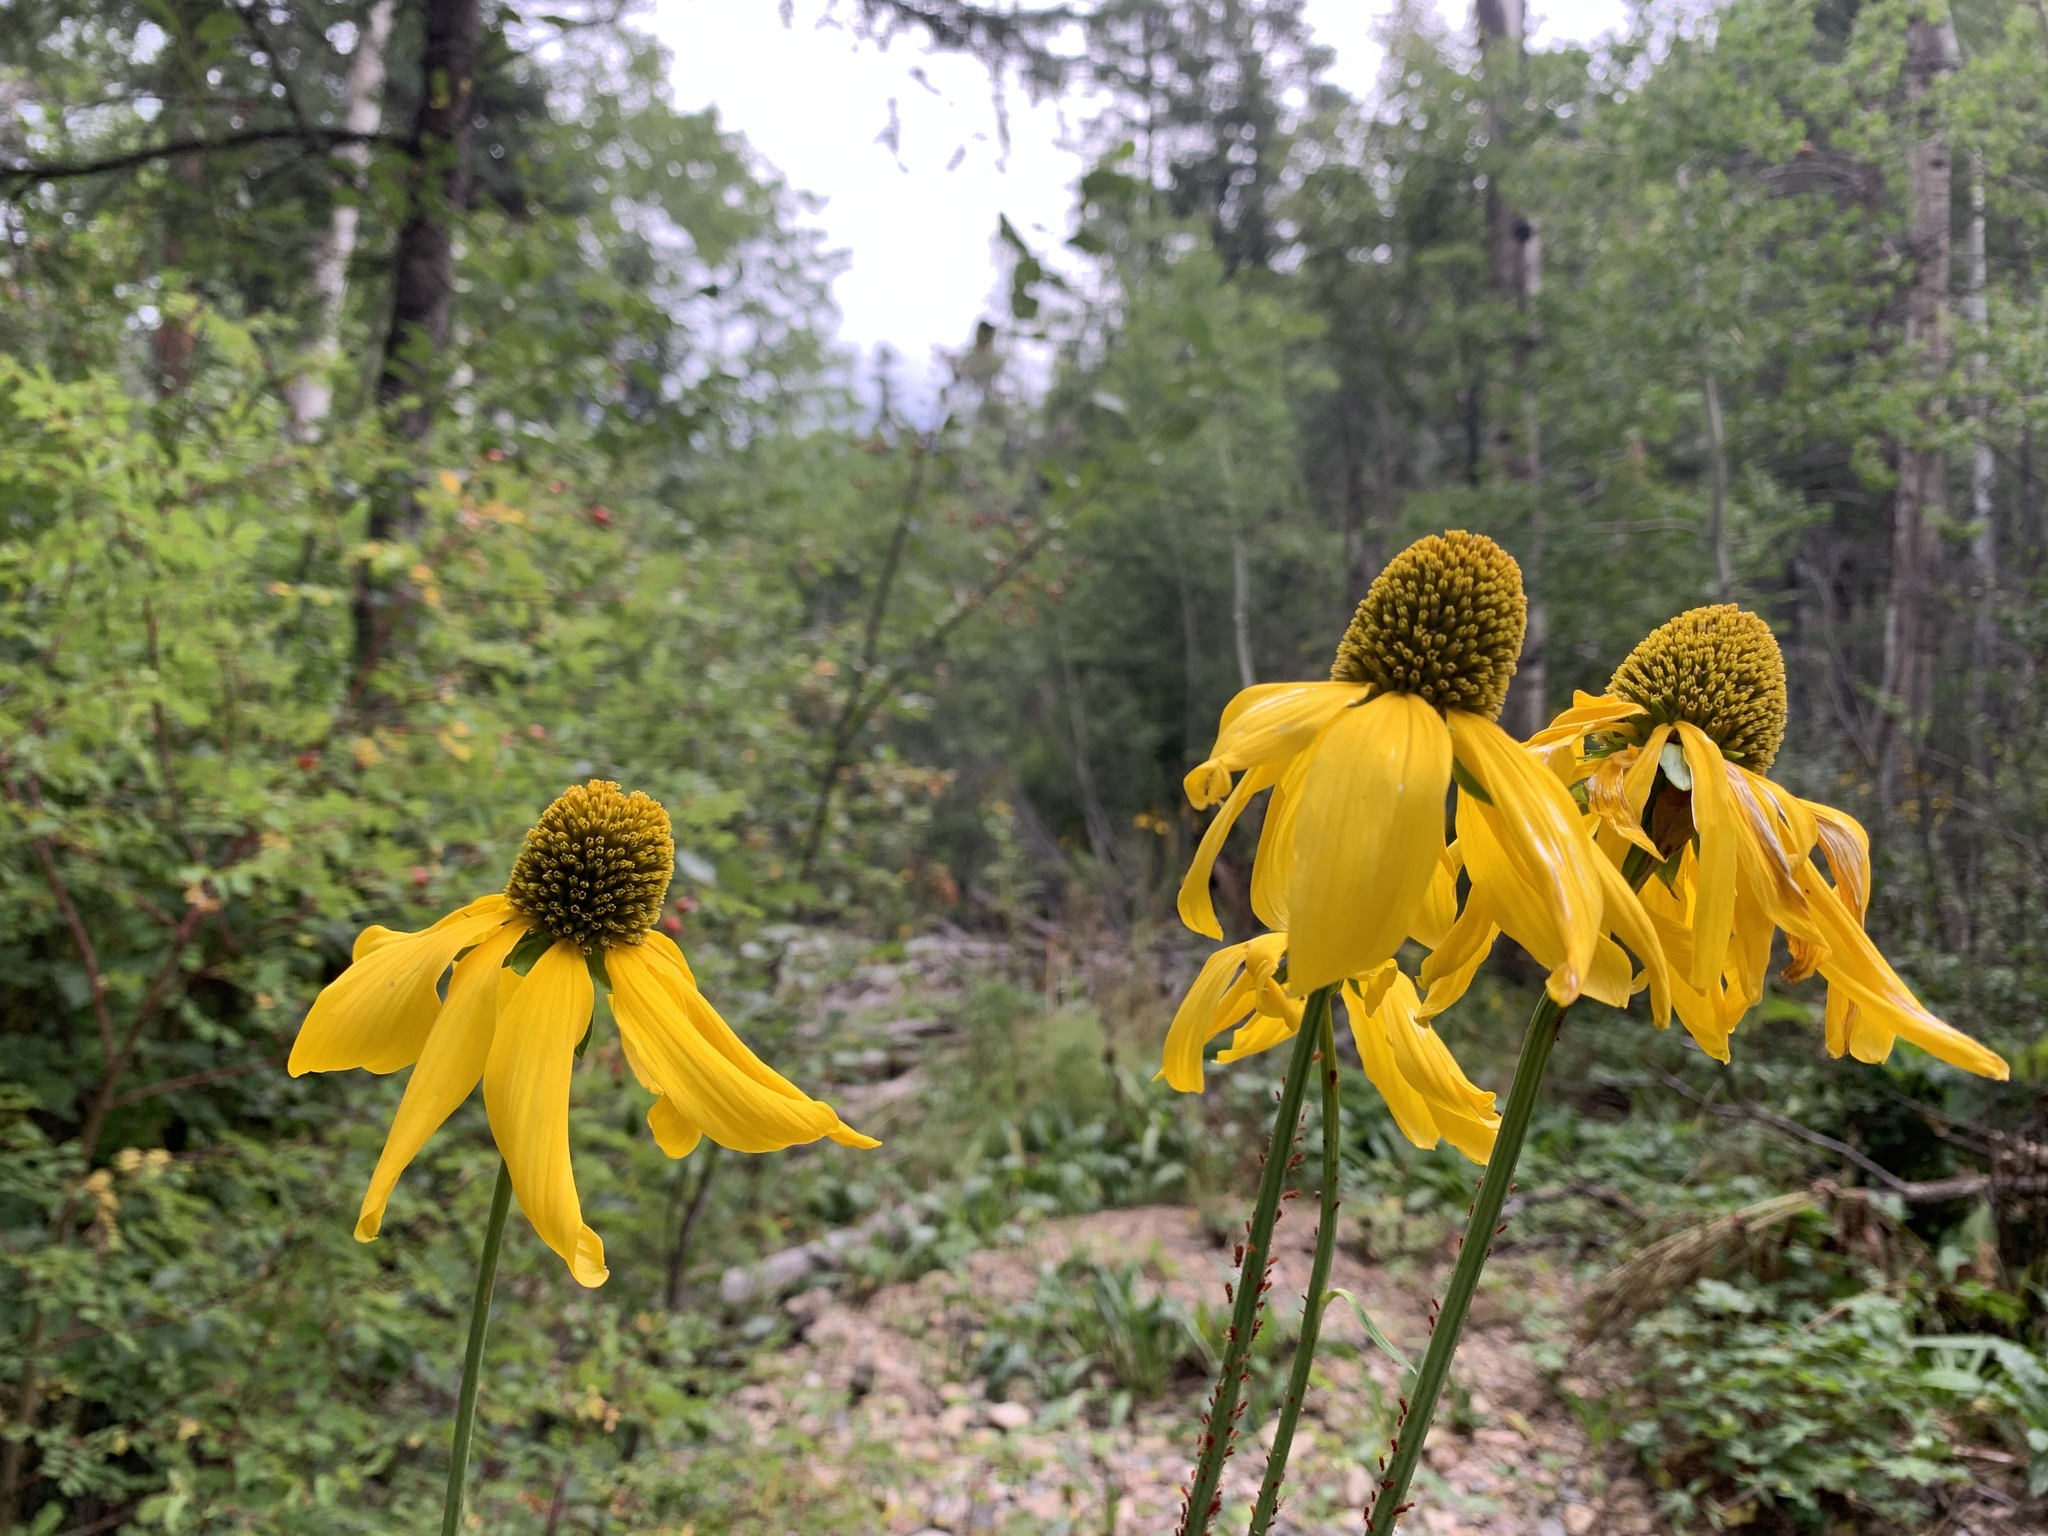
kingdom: Plantae
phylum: Tracheophyta
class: Magnoliopsida
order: Asterales
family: Asteraceae
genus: Rudbeckia
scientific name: Rudbeckia laciniata
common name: Coneflower
